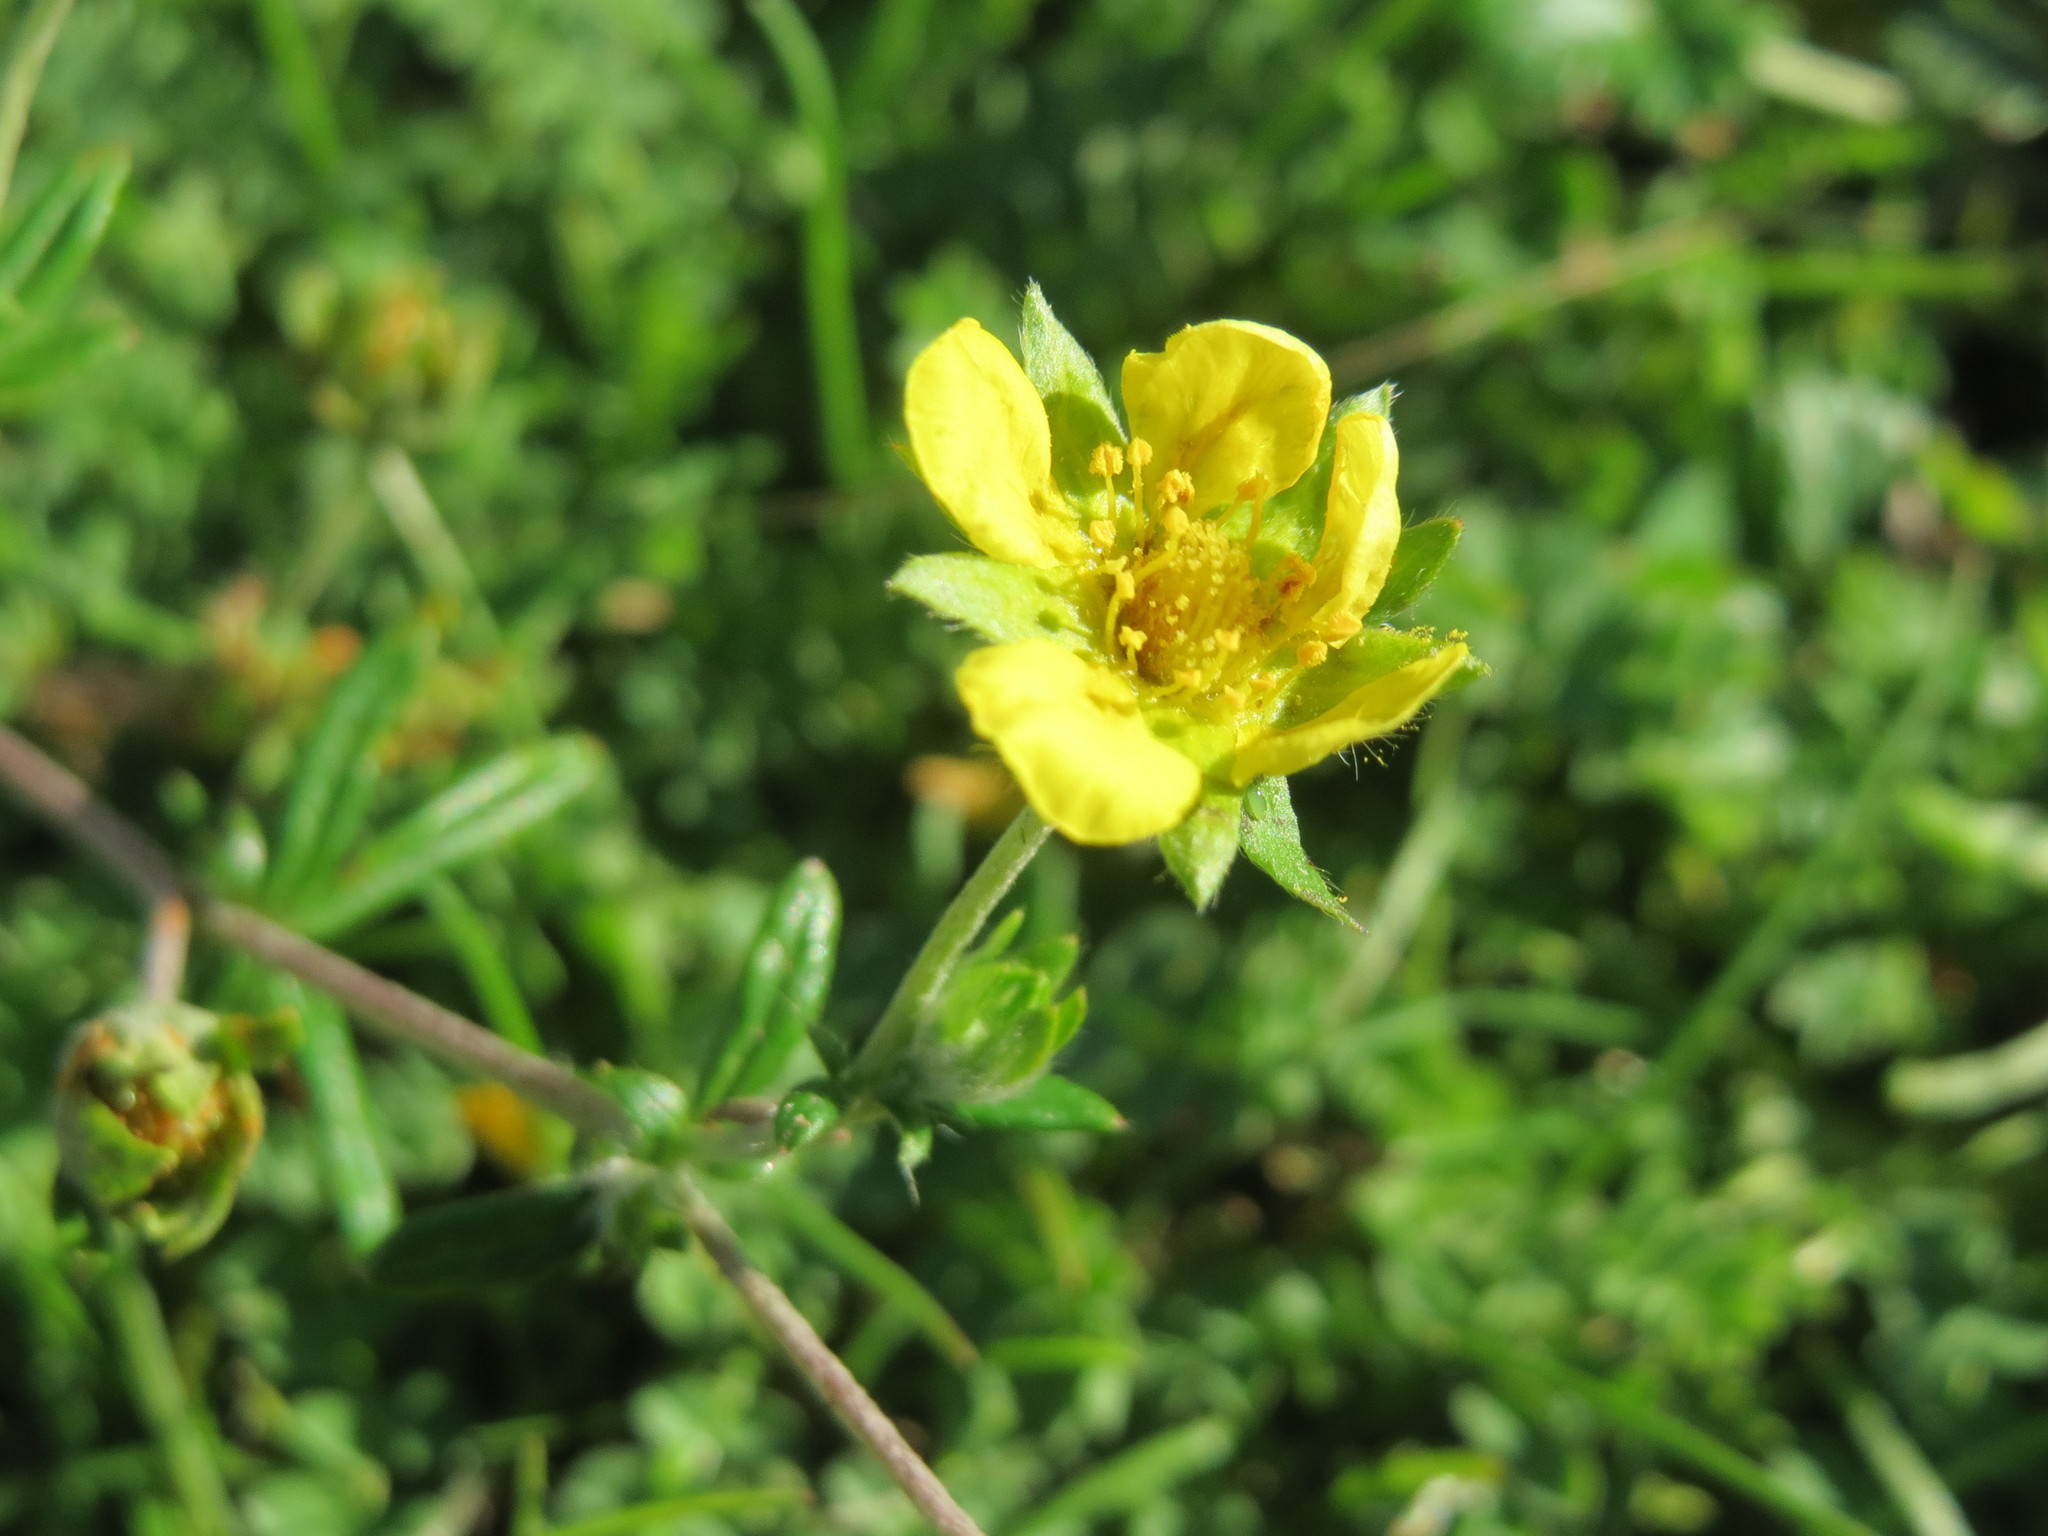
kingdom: Plantae
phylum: Tracheophyta
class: Magnoliopsida
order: Rosales
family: Rosaceae
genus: Potentilla
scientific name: Potentilla argentea
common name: Hoary cinquefoil
